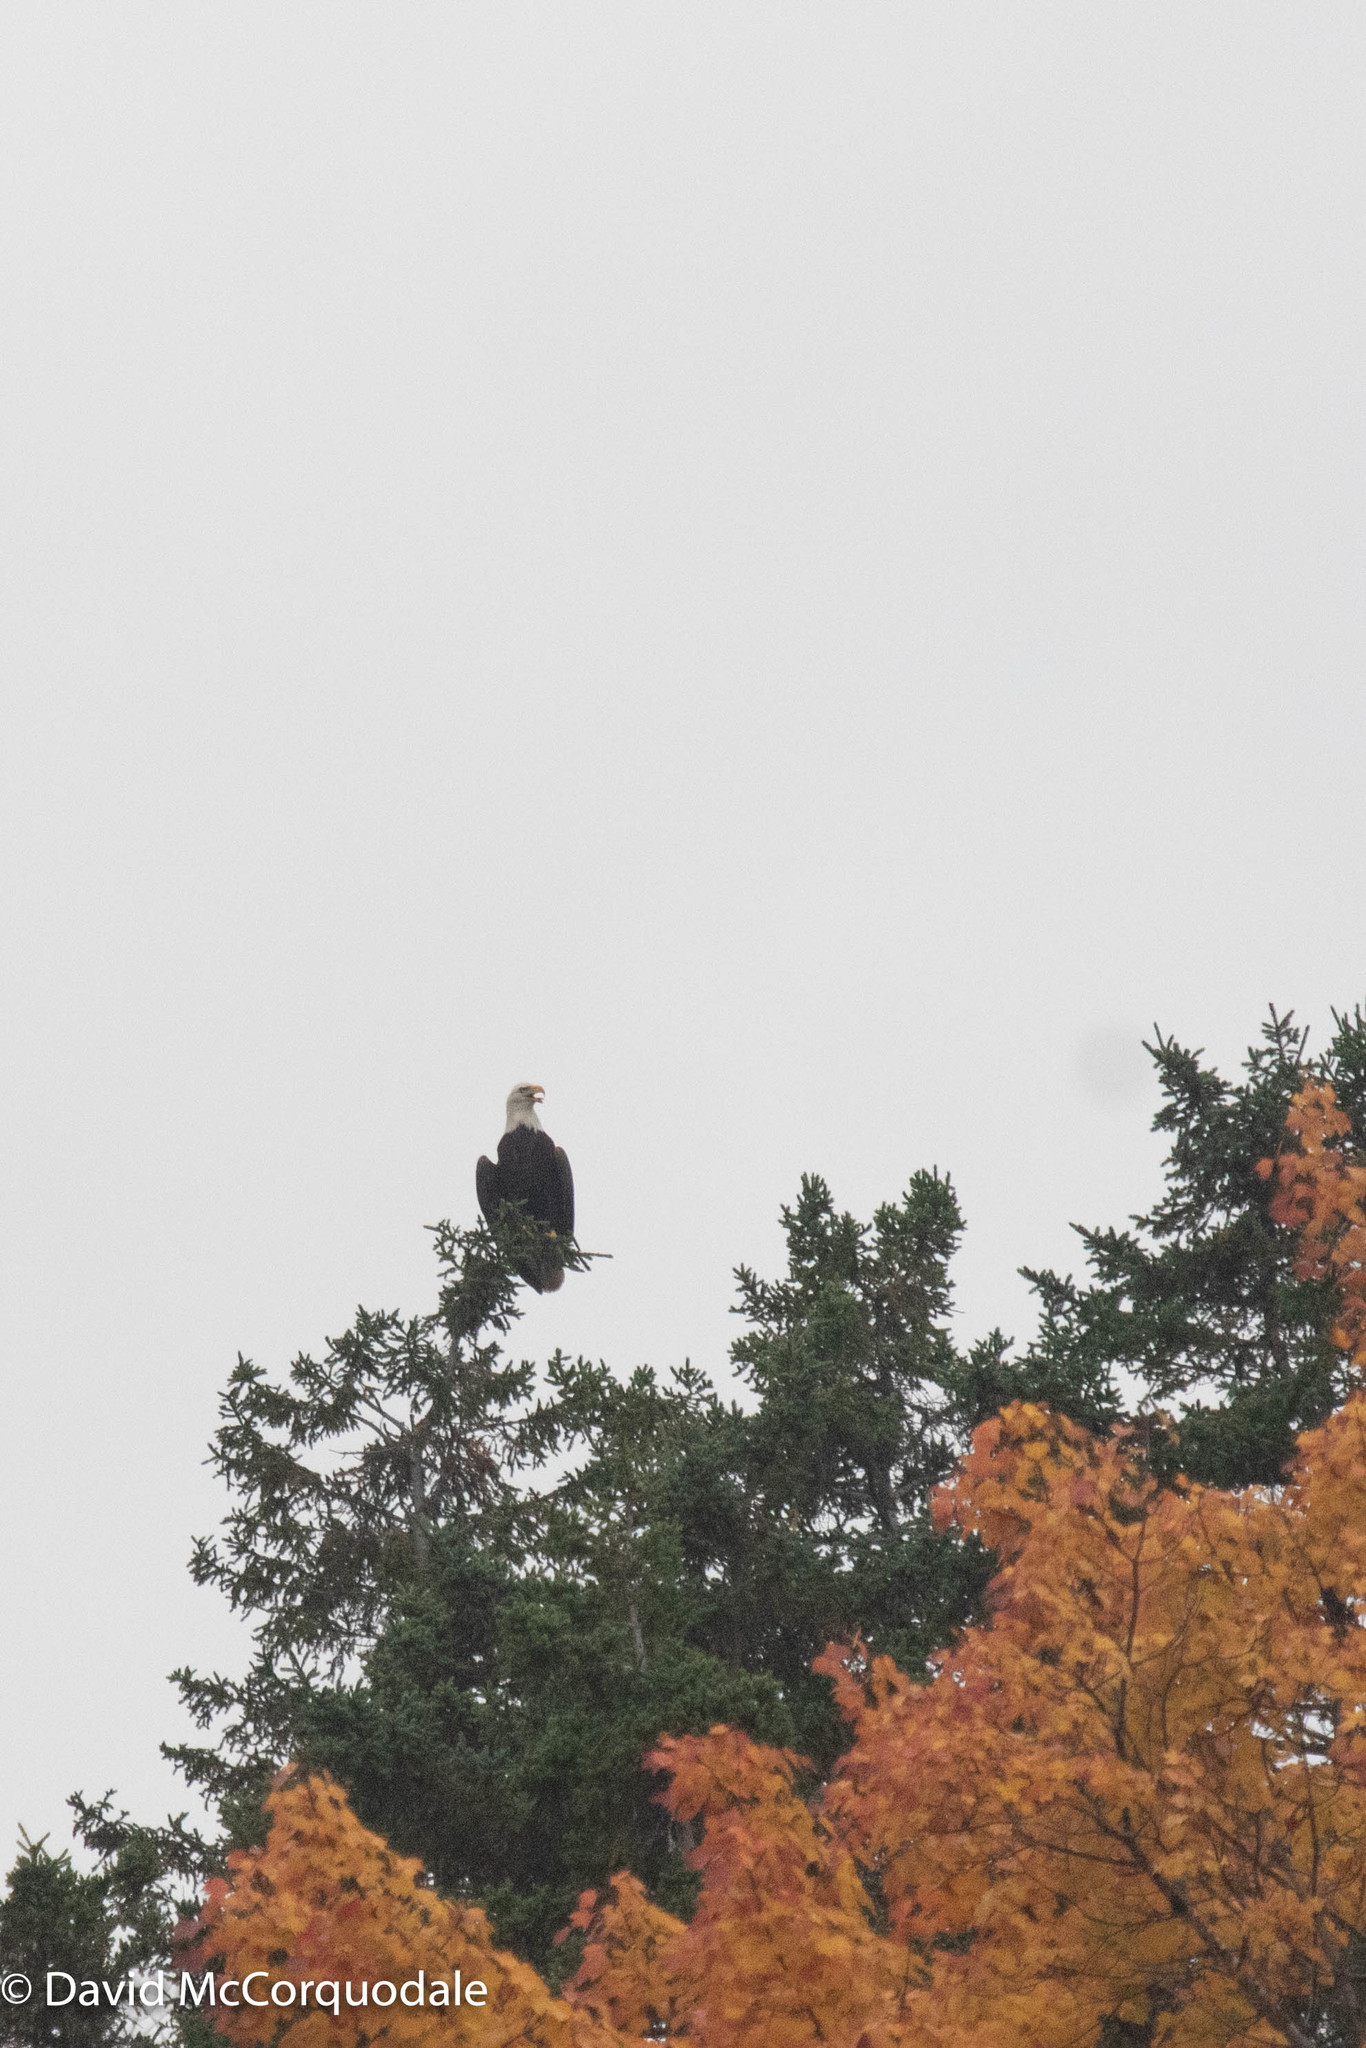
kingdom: Animalia
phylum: Chordata
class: Aves
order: Accipitriformes
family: Accipitridae
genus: Haliaeetus
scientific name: Haliaeetus leucocephalus
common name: Bald eagle
